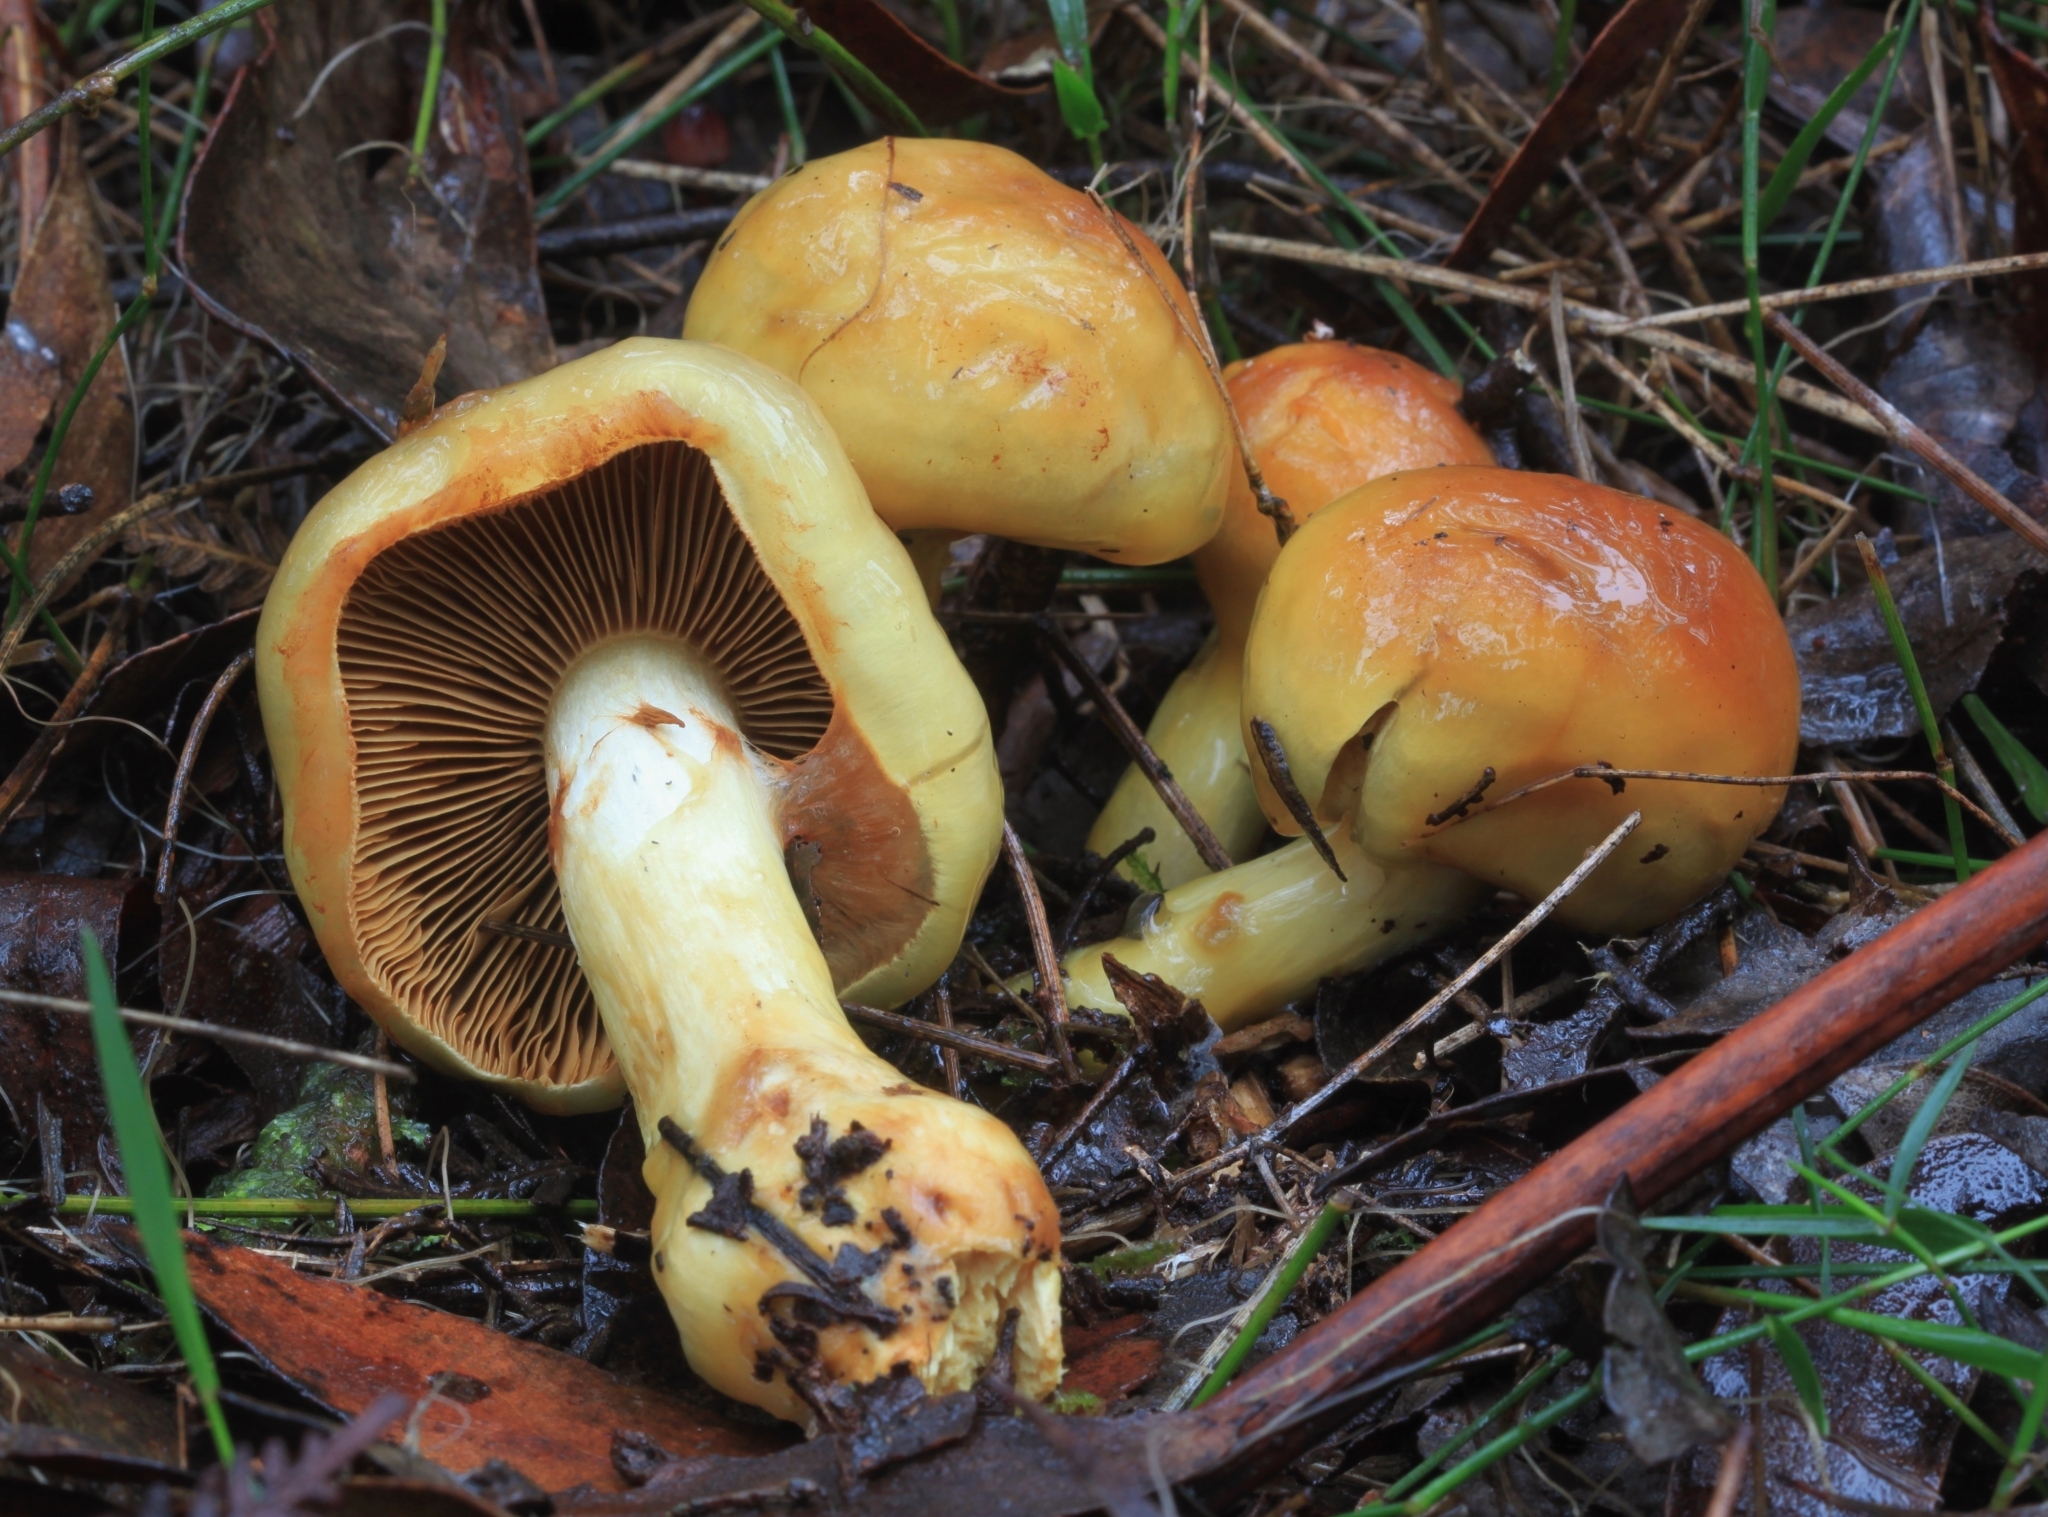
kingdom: Fungi
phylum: Basidiomycota
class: Agaricomycetes
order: Agaricales
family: Cortinariaceae
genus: Cortinarius
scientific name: Cortinarius sinapicolor
